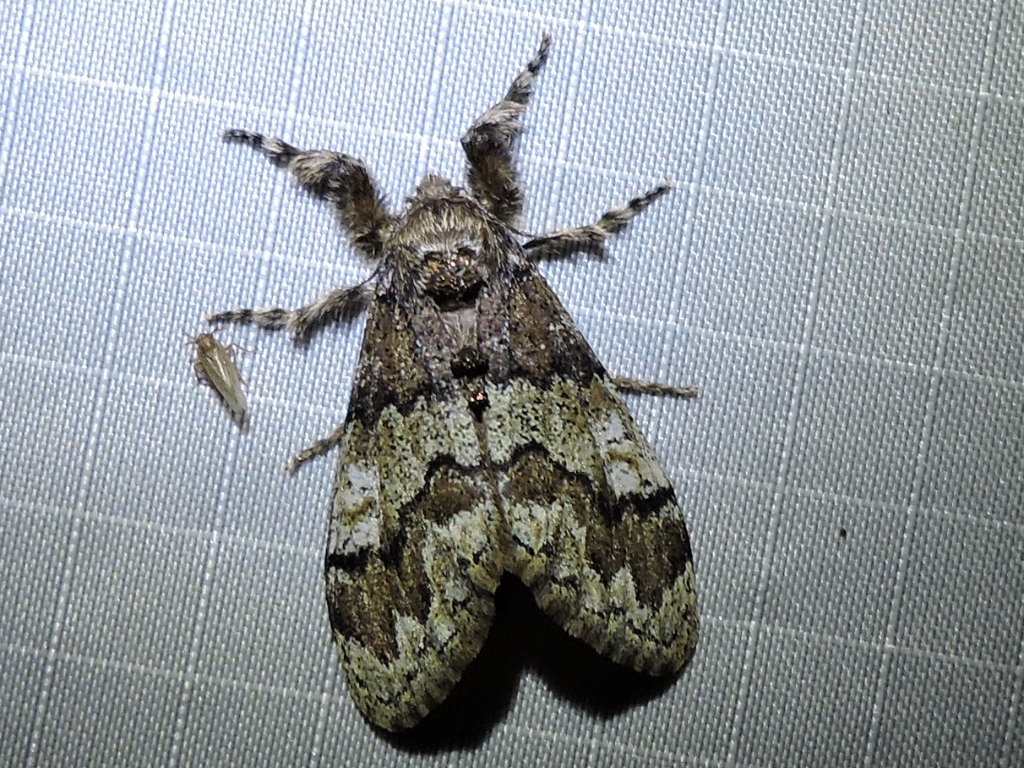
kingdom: Animalia
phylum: Arthropoda
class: Insecta
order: Lepidoptera
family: Erebidae
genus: Dasychira
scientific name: Dasychira manto
